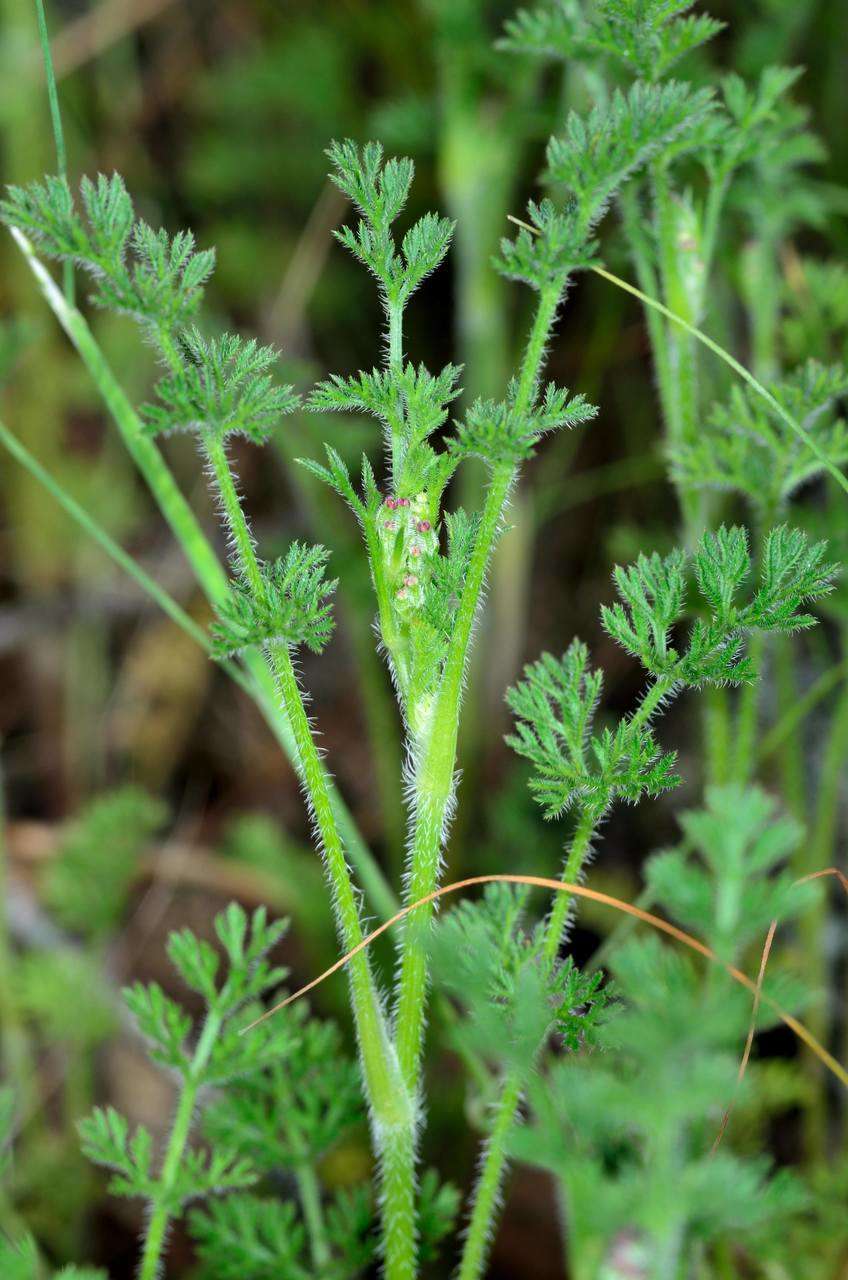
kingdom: Plantae
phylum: Tracheophyta
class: Magnoliopsida
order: Apiales
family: Apiaceae
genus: Daucus
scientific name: Daucus glochidiatus
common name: Australian carrot
